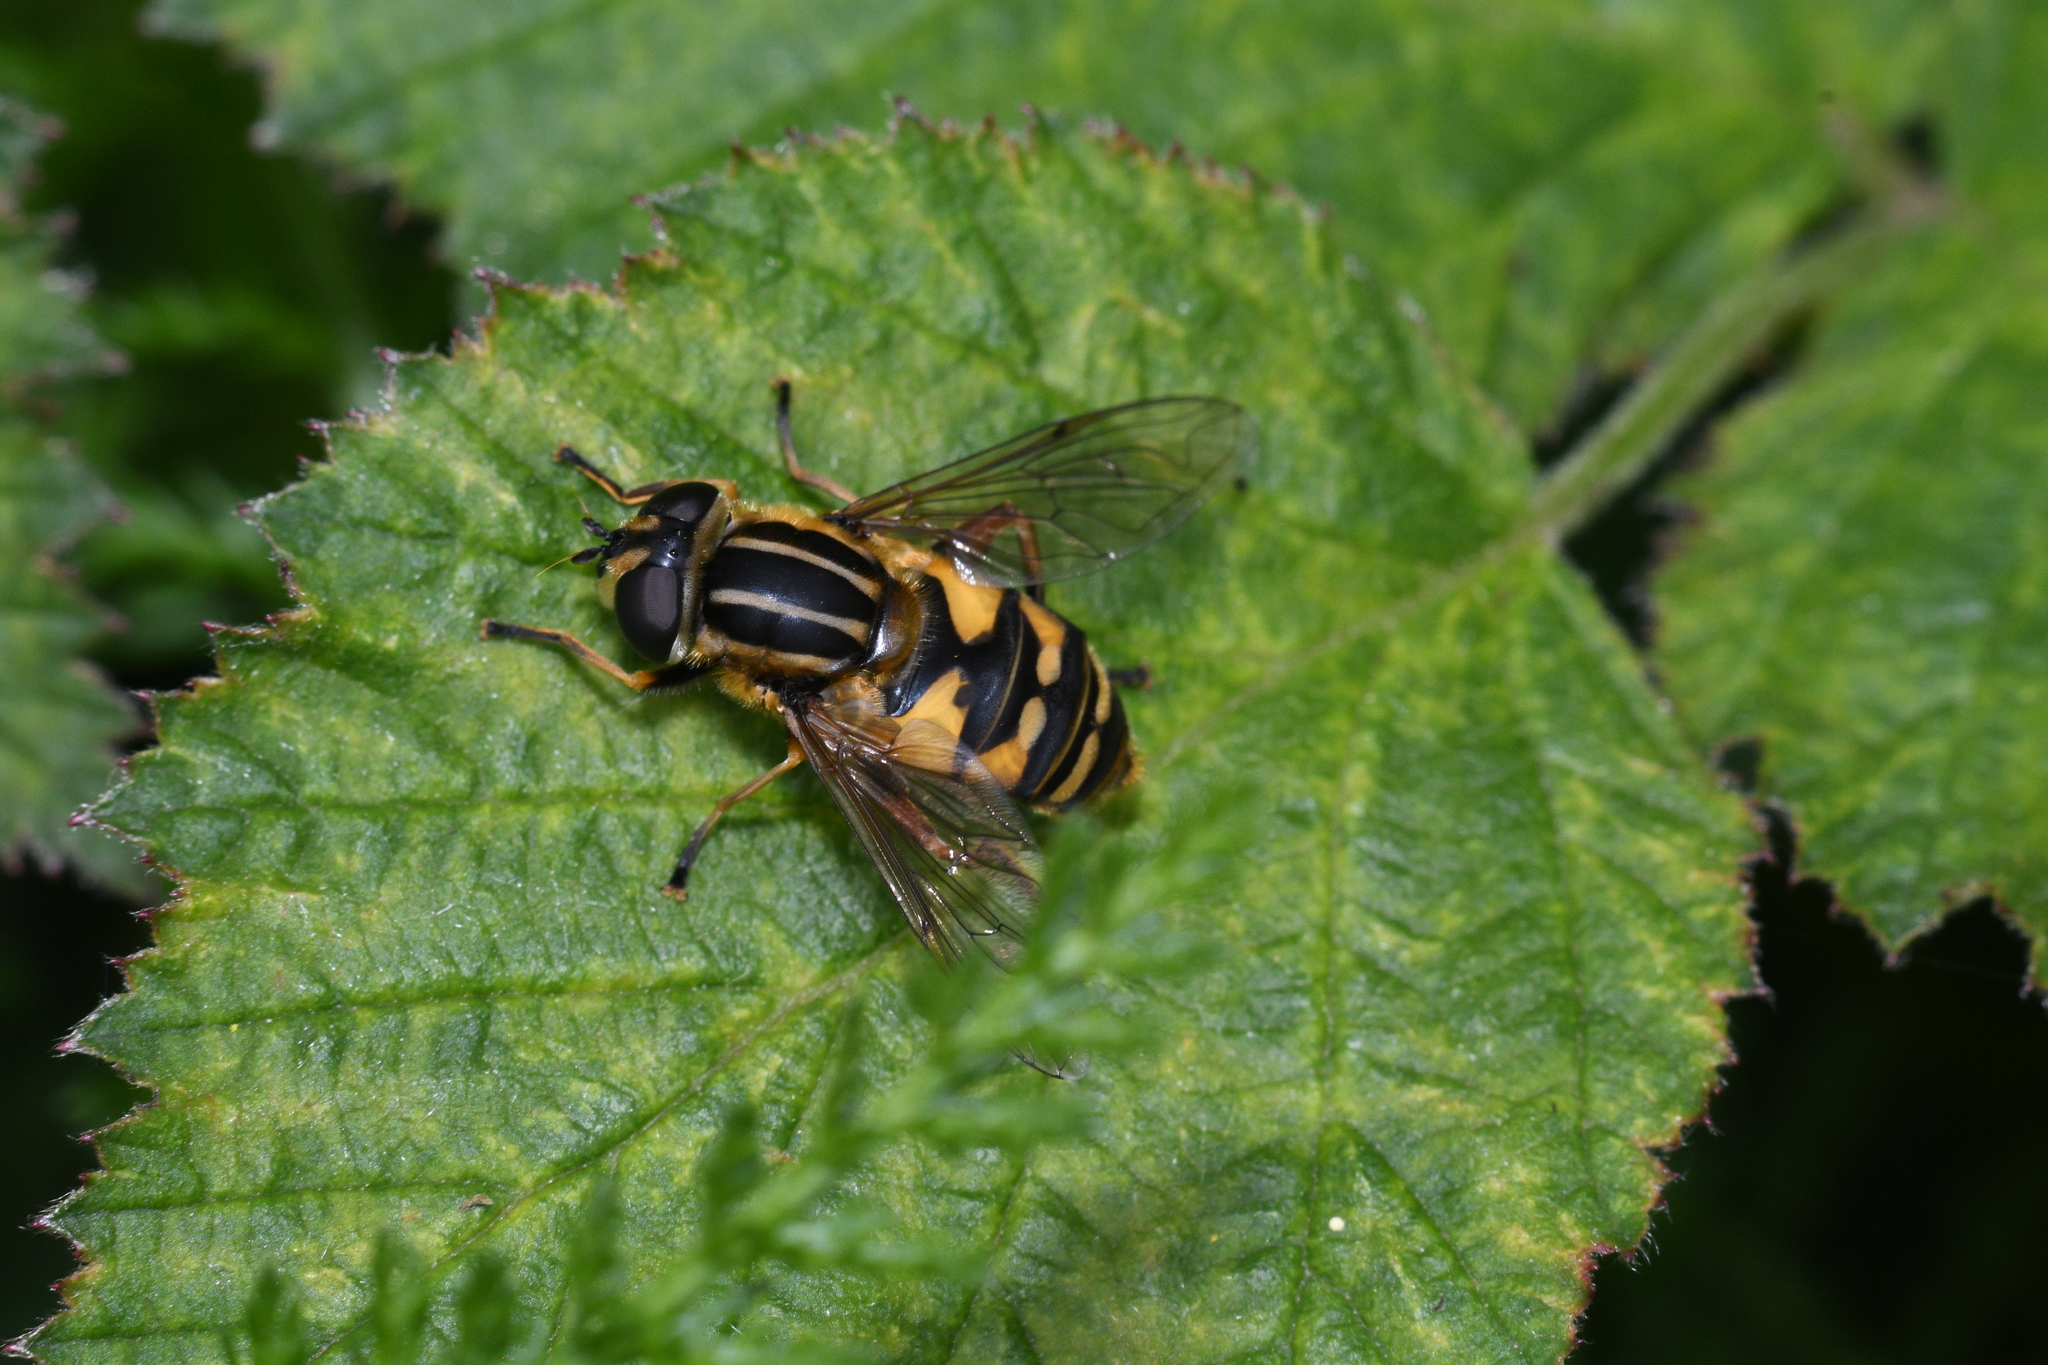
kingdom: Animalia
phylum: Arthropoda
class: Insecta
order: Diptera
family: Syrphidae
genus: Helophilus
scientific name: Helophilus pendulus
